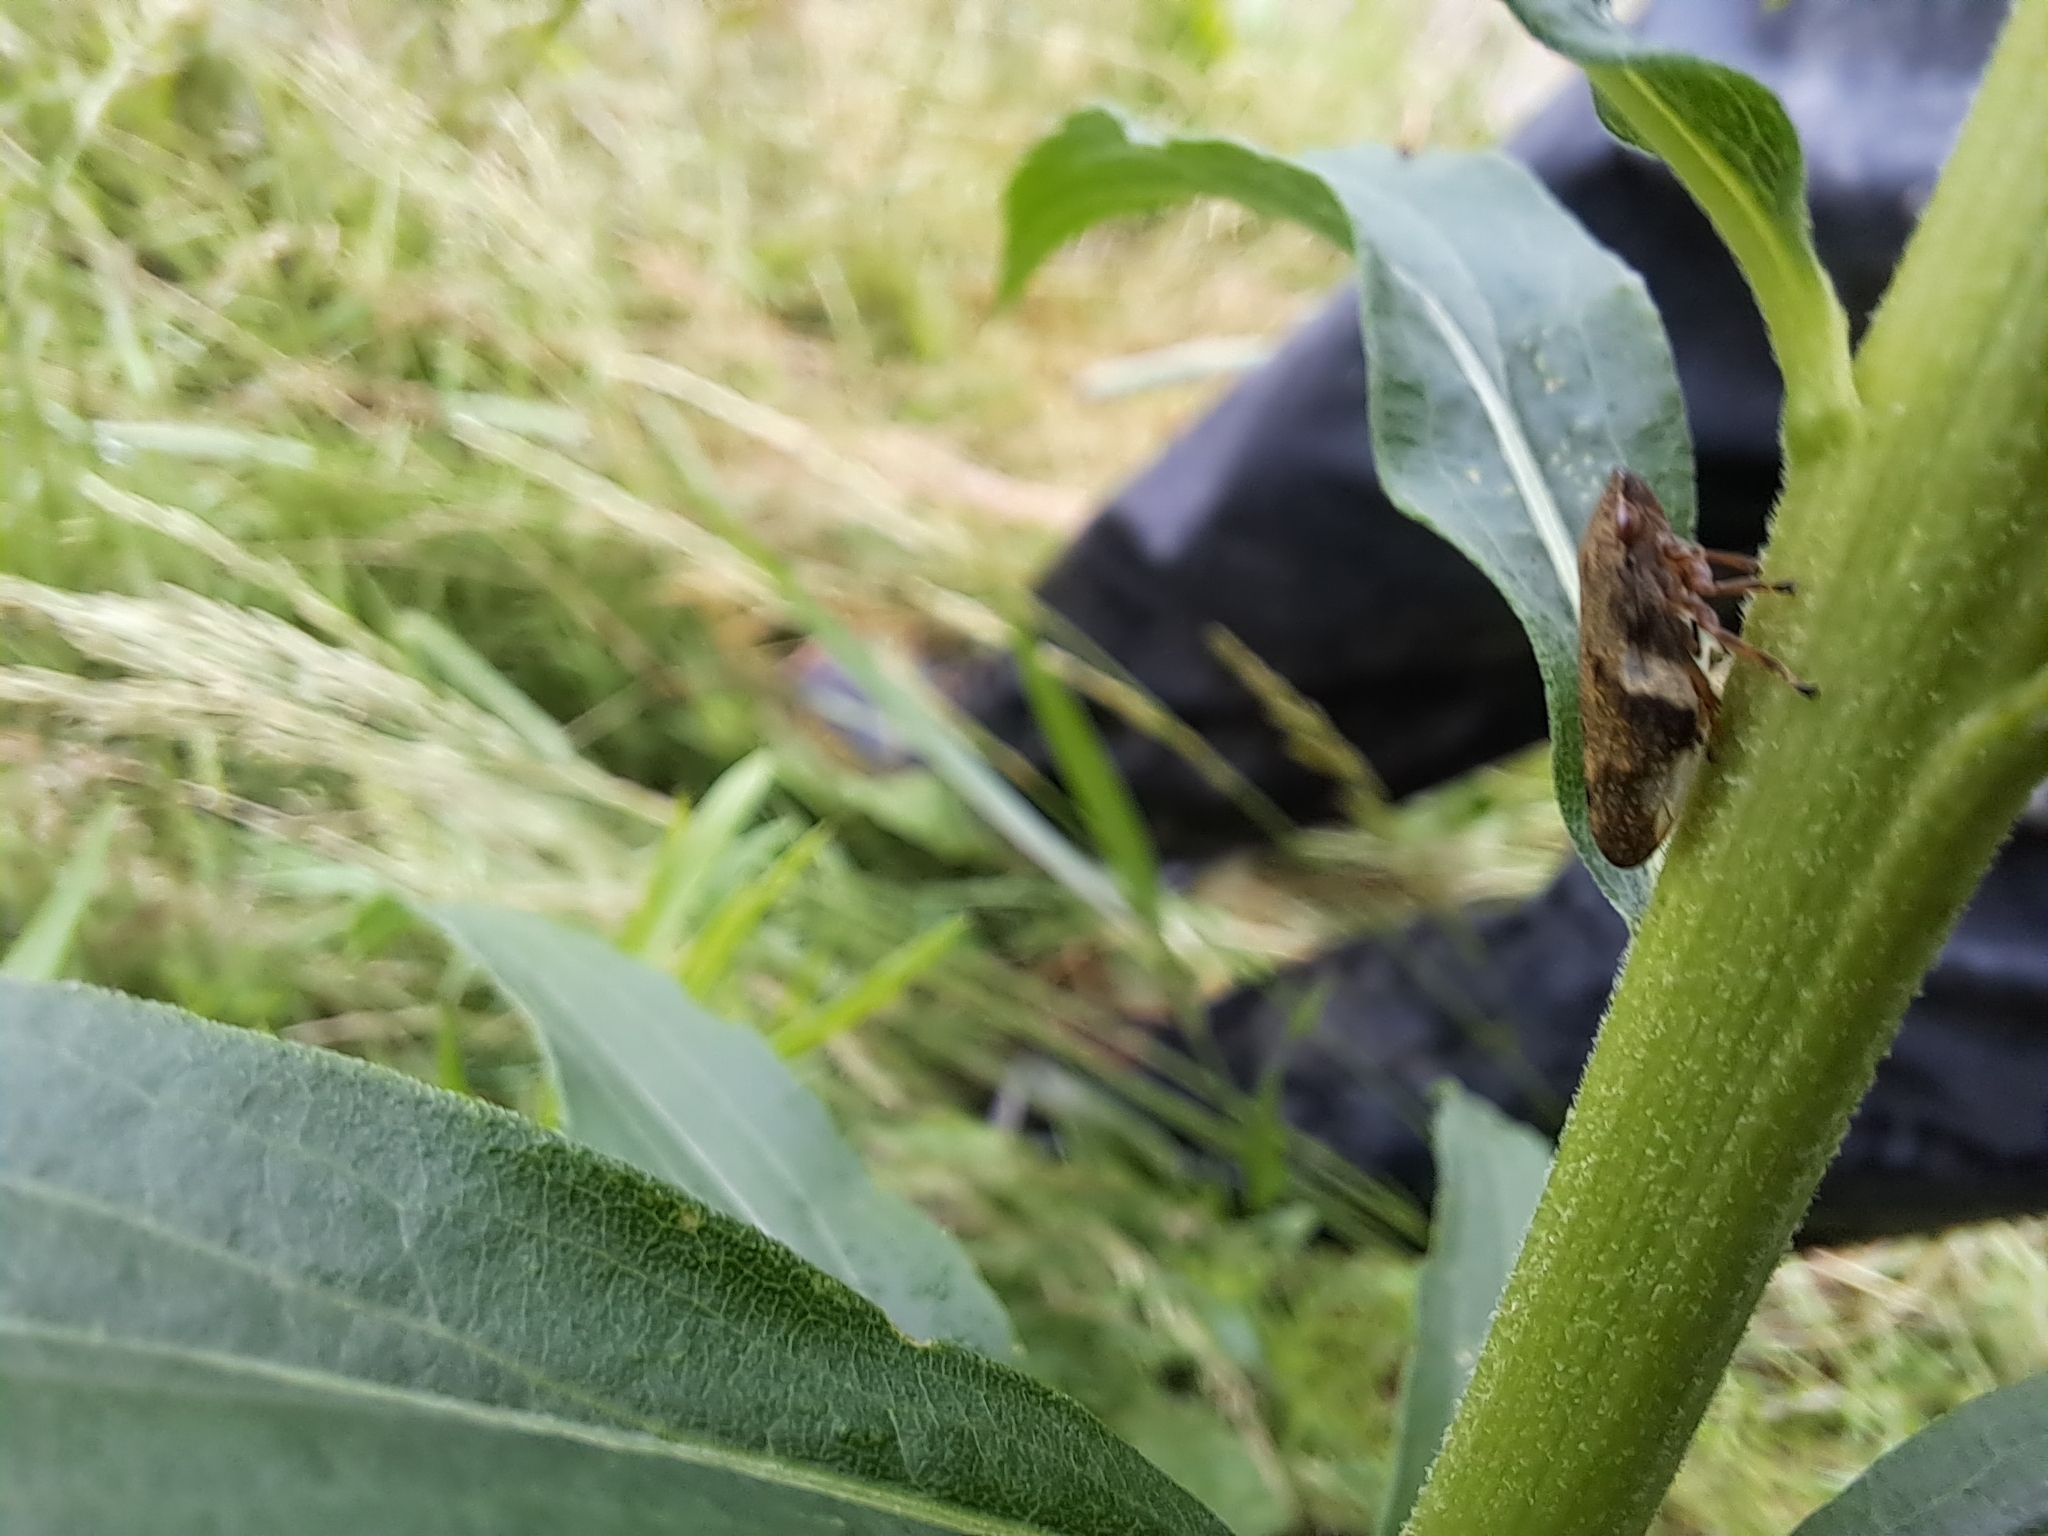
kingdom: Animalia
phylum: Arthropoda
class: Insecta
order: Hemiptera
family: Aphrophoridae
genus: Aphrophora
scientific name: Aphrophora alni
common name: European alder spittlebug
